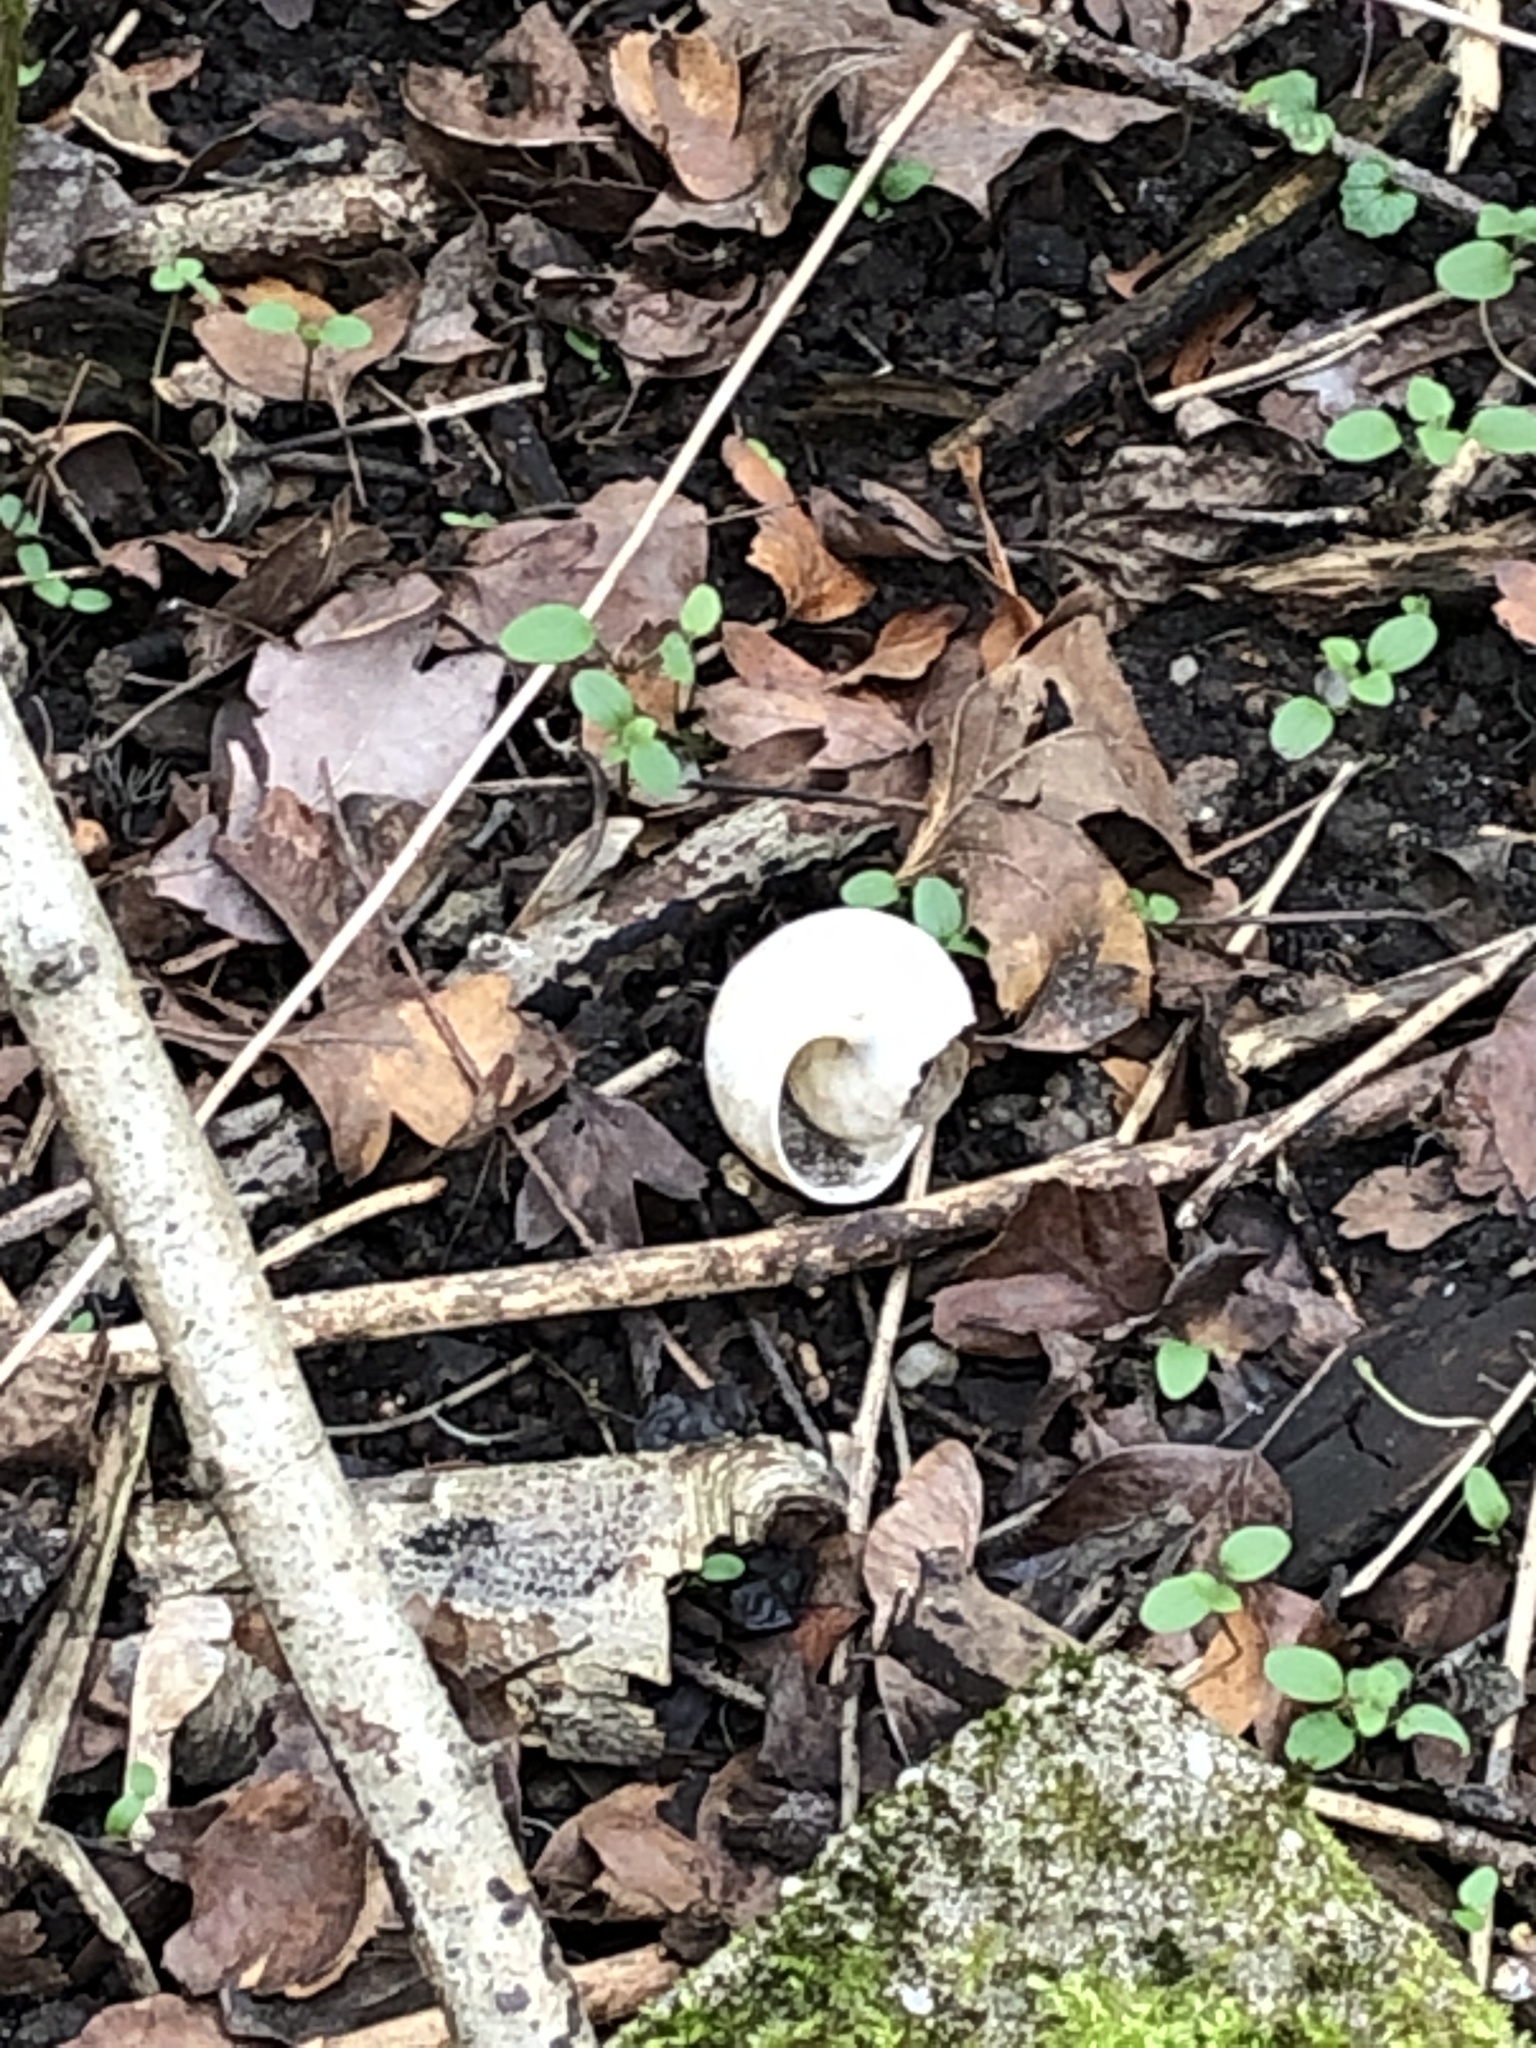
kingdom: Animalia
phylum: Mollusca
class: Gastropoda
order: Stylommatophora
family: Helicidae
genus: Helix
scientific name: Helix pomatia
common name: Roman snail
